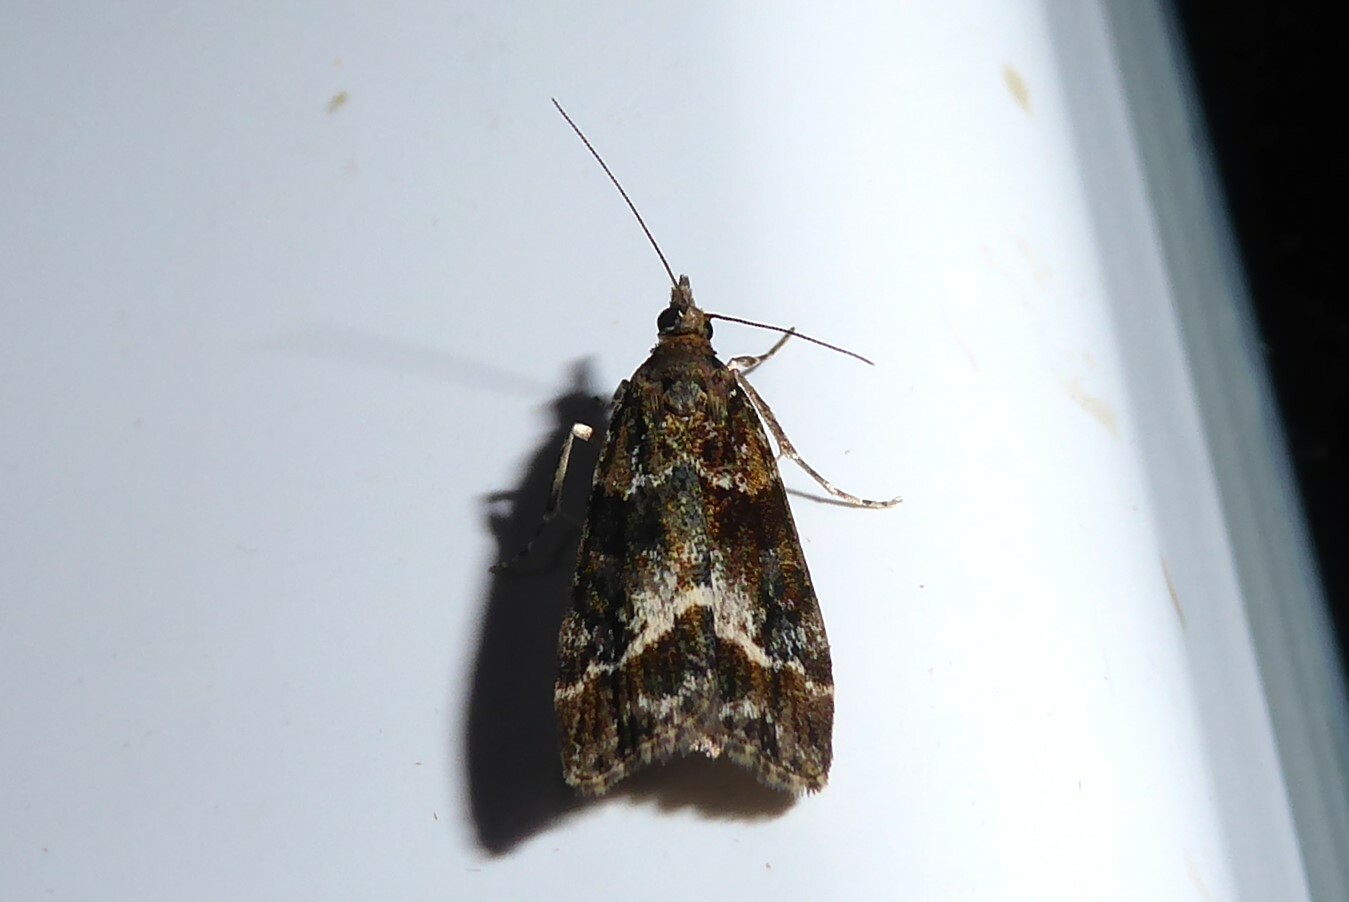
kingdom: Animalia
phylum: Arthropoda
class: Insecta
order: Lepidoptera
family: Crambidae
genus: Eudonia
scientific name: Eudonia legnota
